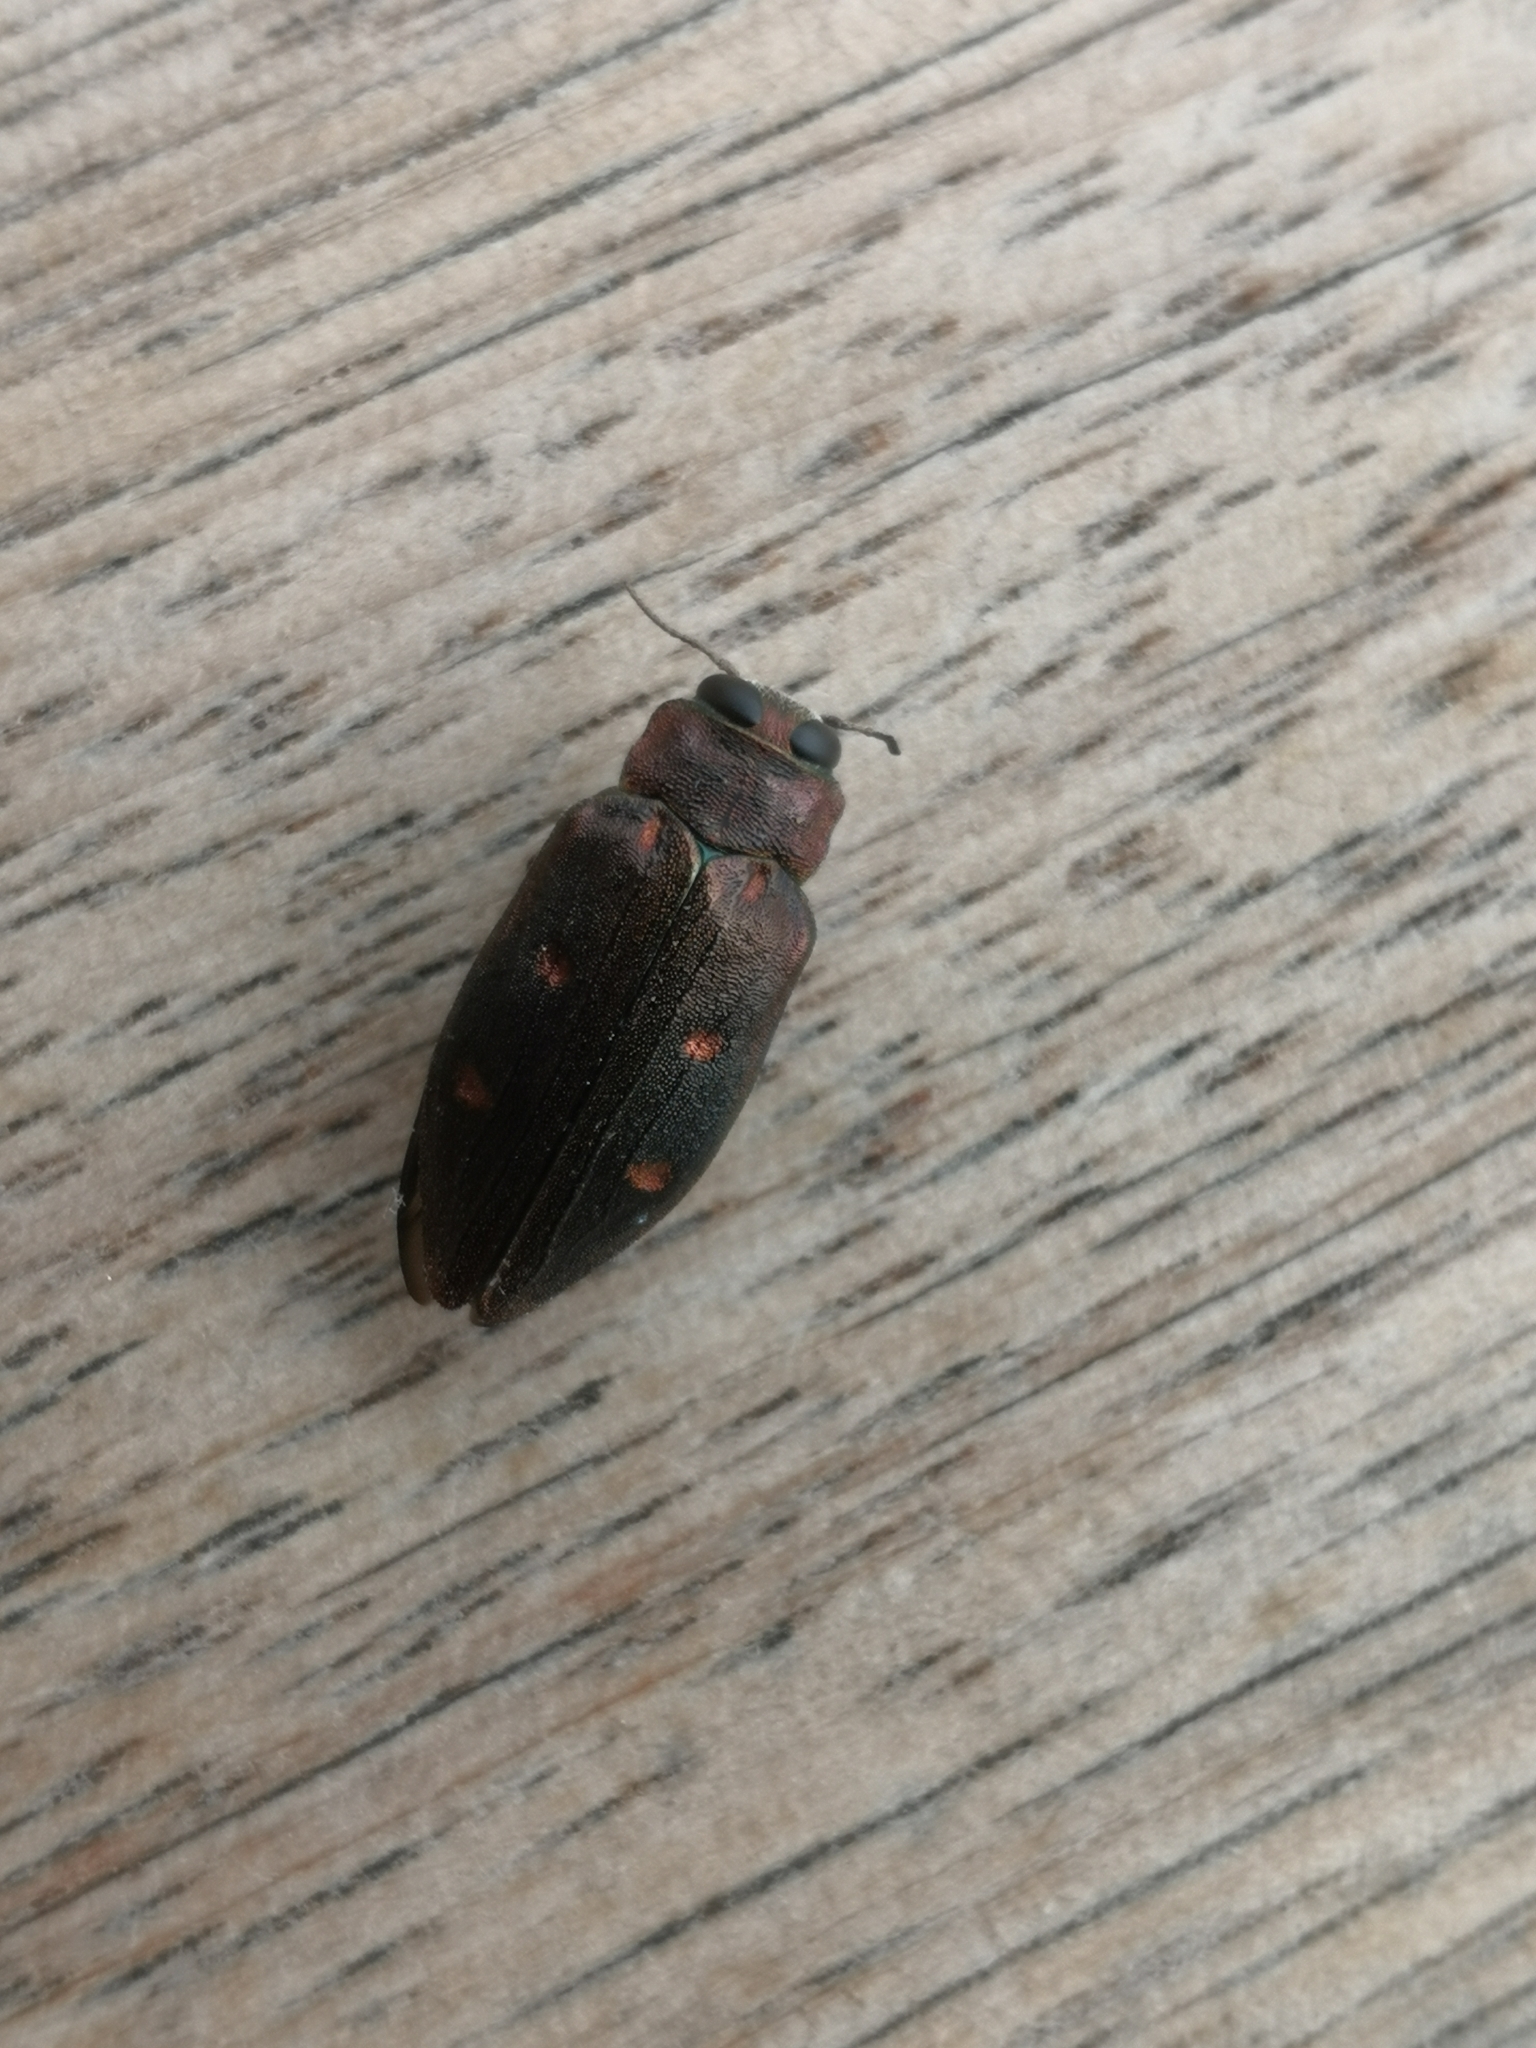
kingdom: Animalia
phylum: Arthropoda
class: Insecta
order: Coleoptera
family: Buprestidae
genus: Chrysobothris
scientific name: Chrysobothris affinis
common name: Beetle
